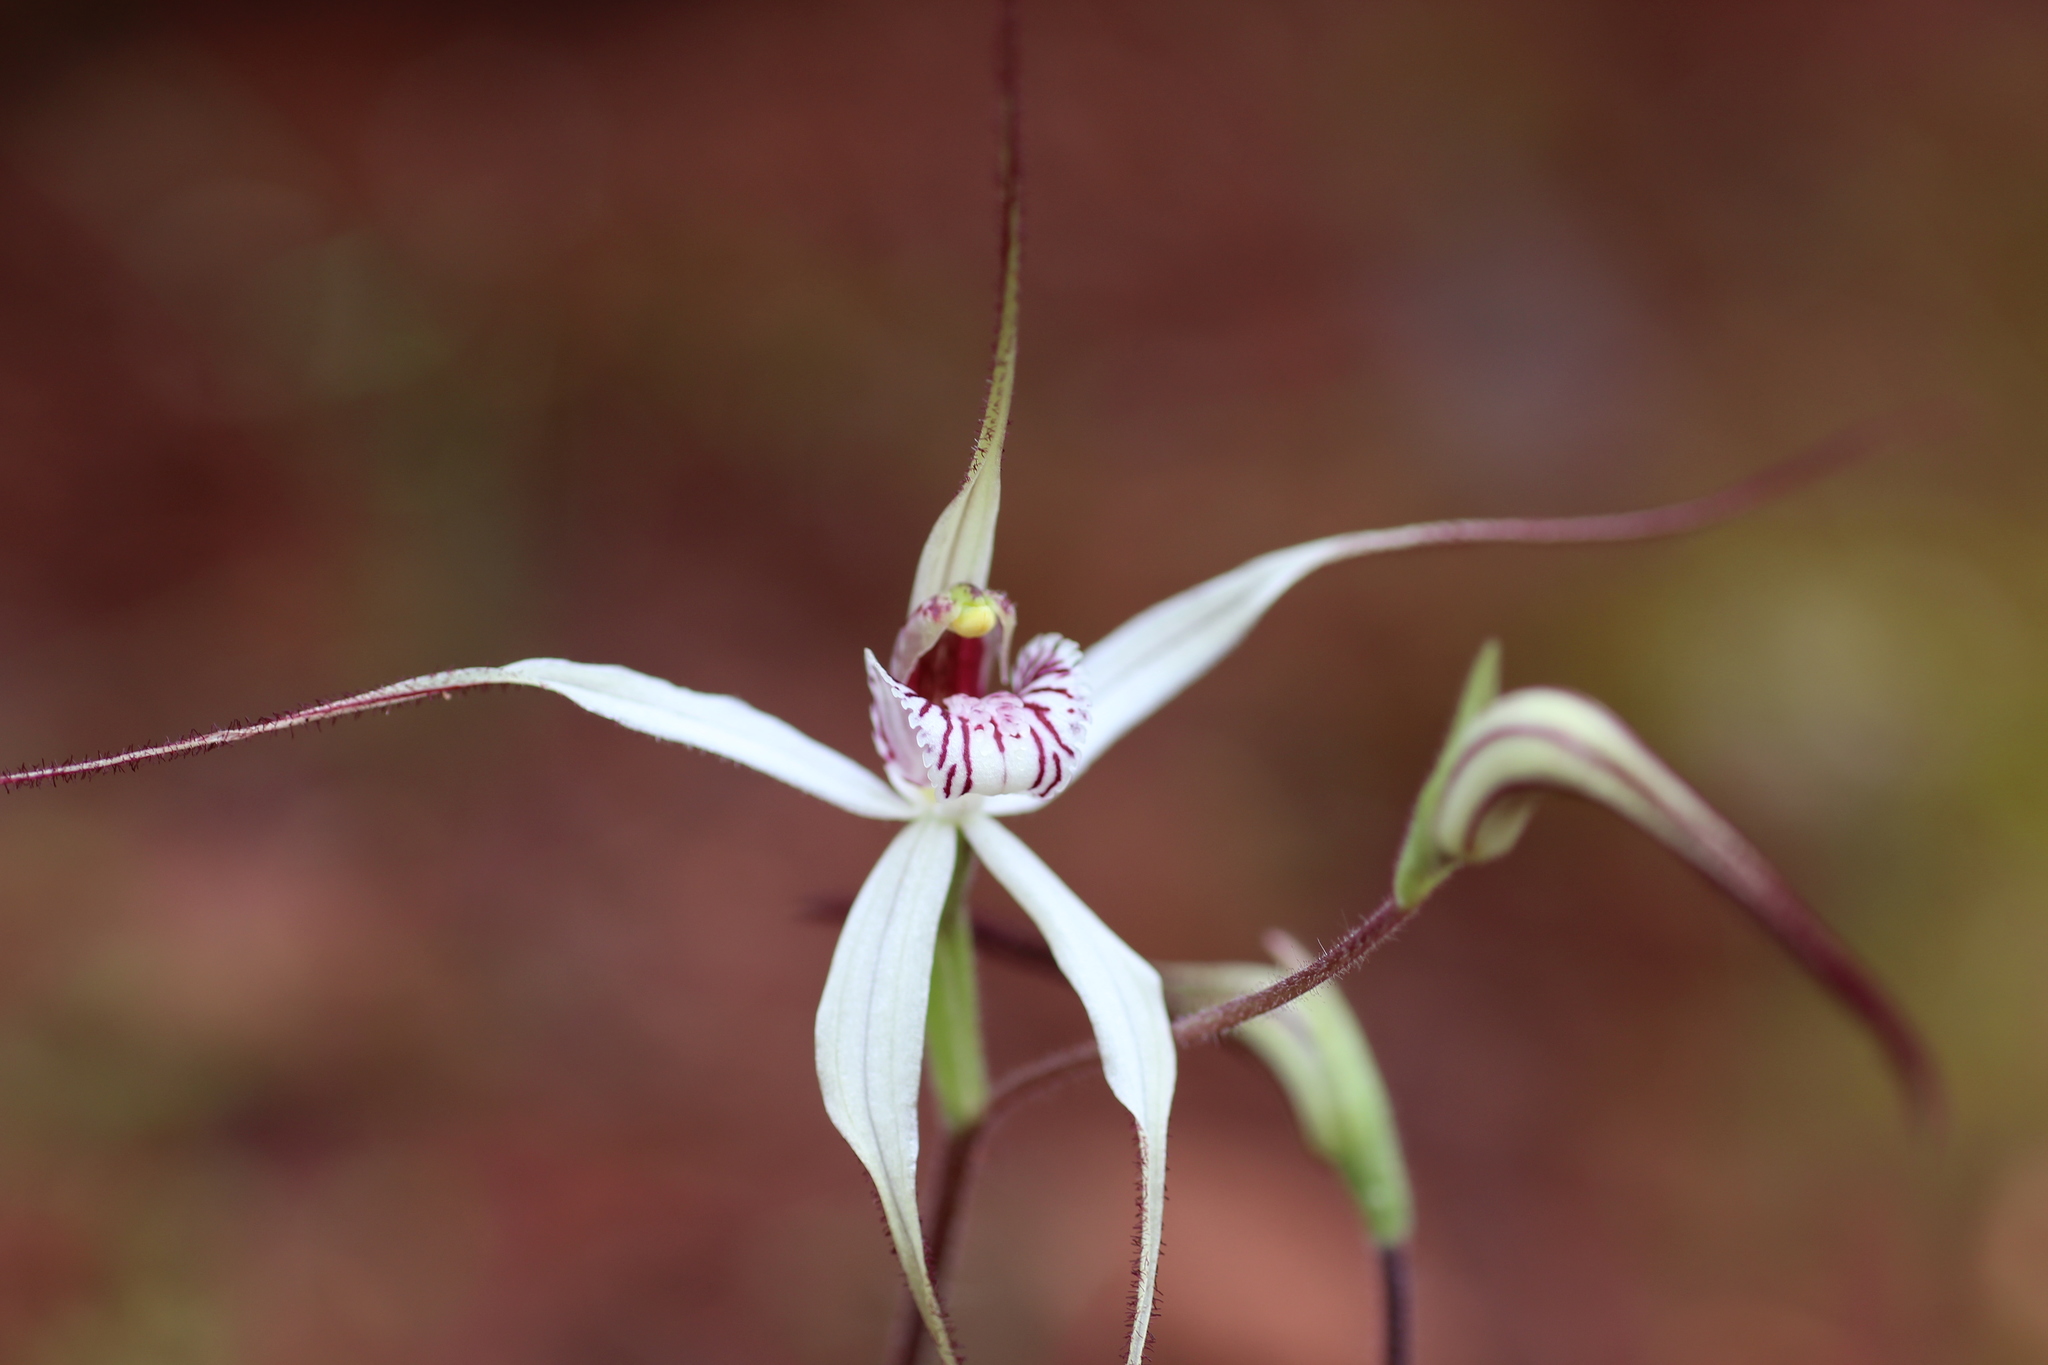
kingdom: Plantae
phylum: Tracheophyta
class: Liliopsida
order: Asparagales
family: Orchidaceae
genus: Caladenia
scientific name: Caladenia saxicola
